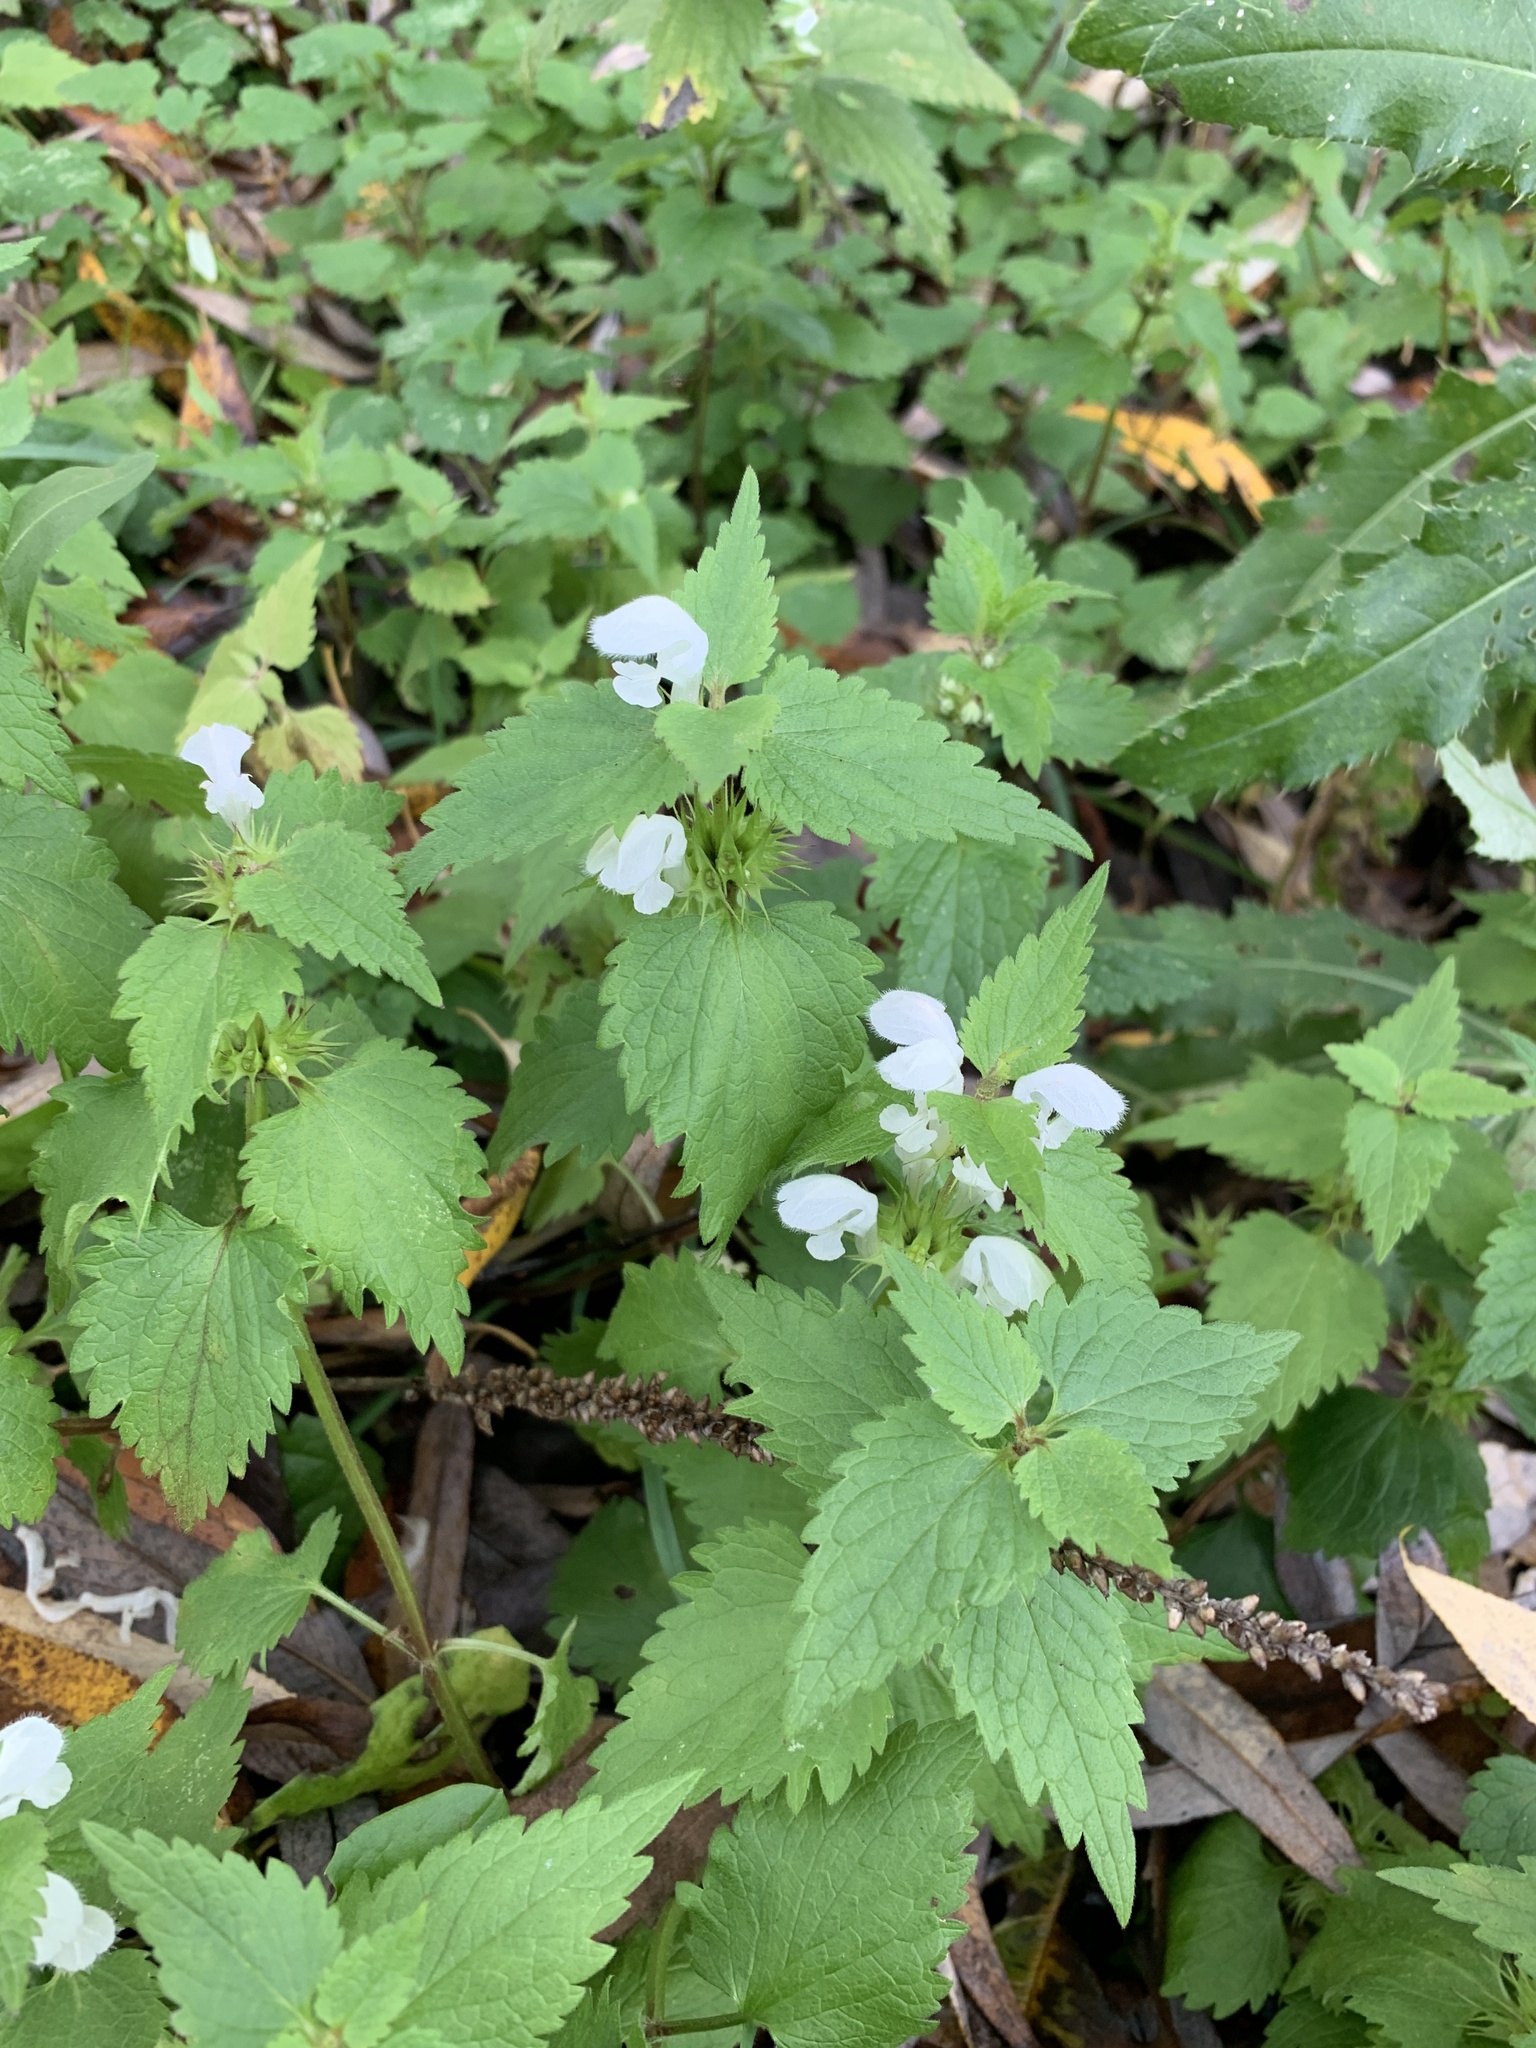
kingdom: Plantae
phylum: Tracheophyta
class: Magnoliopsida
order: Lamiales
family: Lamiaceae
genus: Lamium
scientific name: Lamium album
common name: White dead-nettle
